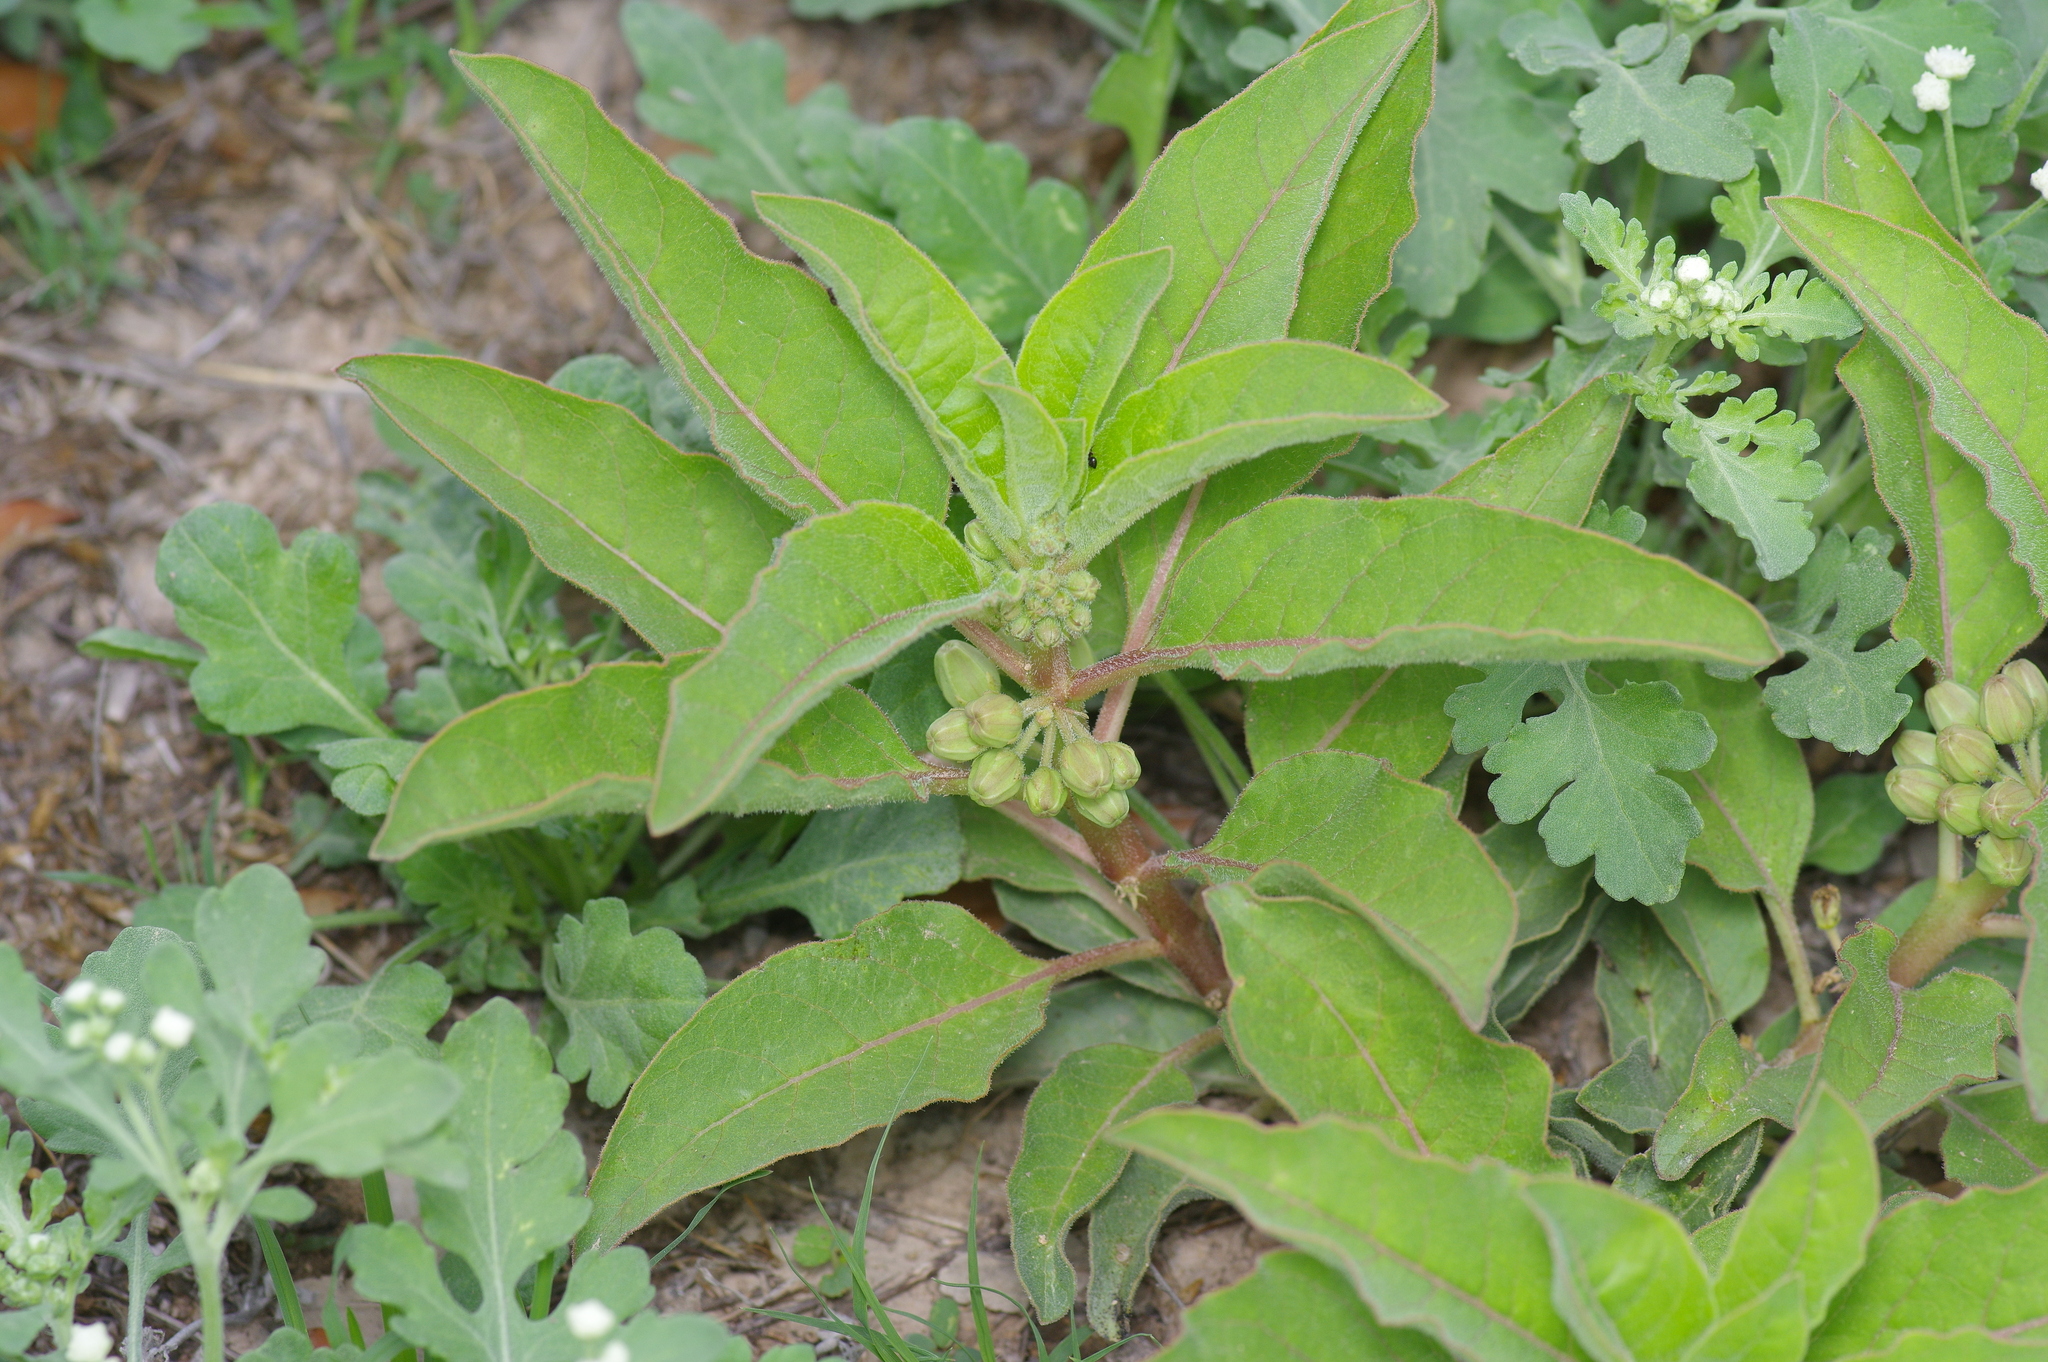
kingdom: Plantae
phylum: Tracheophyta
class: Magnoliopsida
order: Gentianales
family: Apocynaceae
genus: Asclepias
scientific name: Asclepias oenotheroides
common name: Zizotes milkweed
